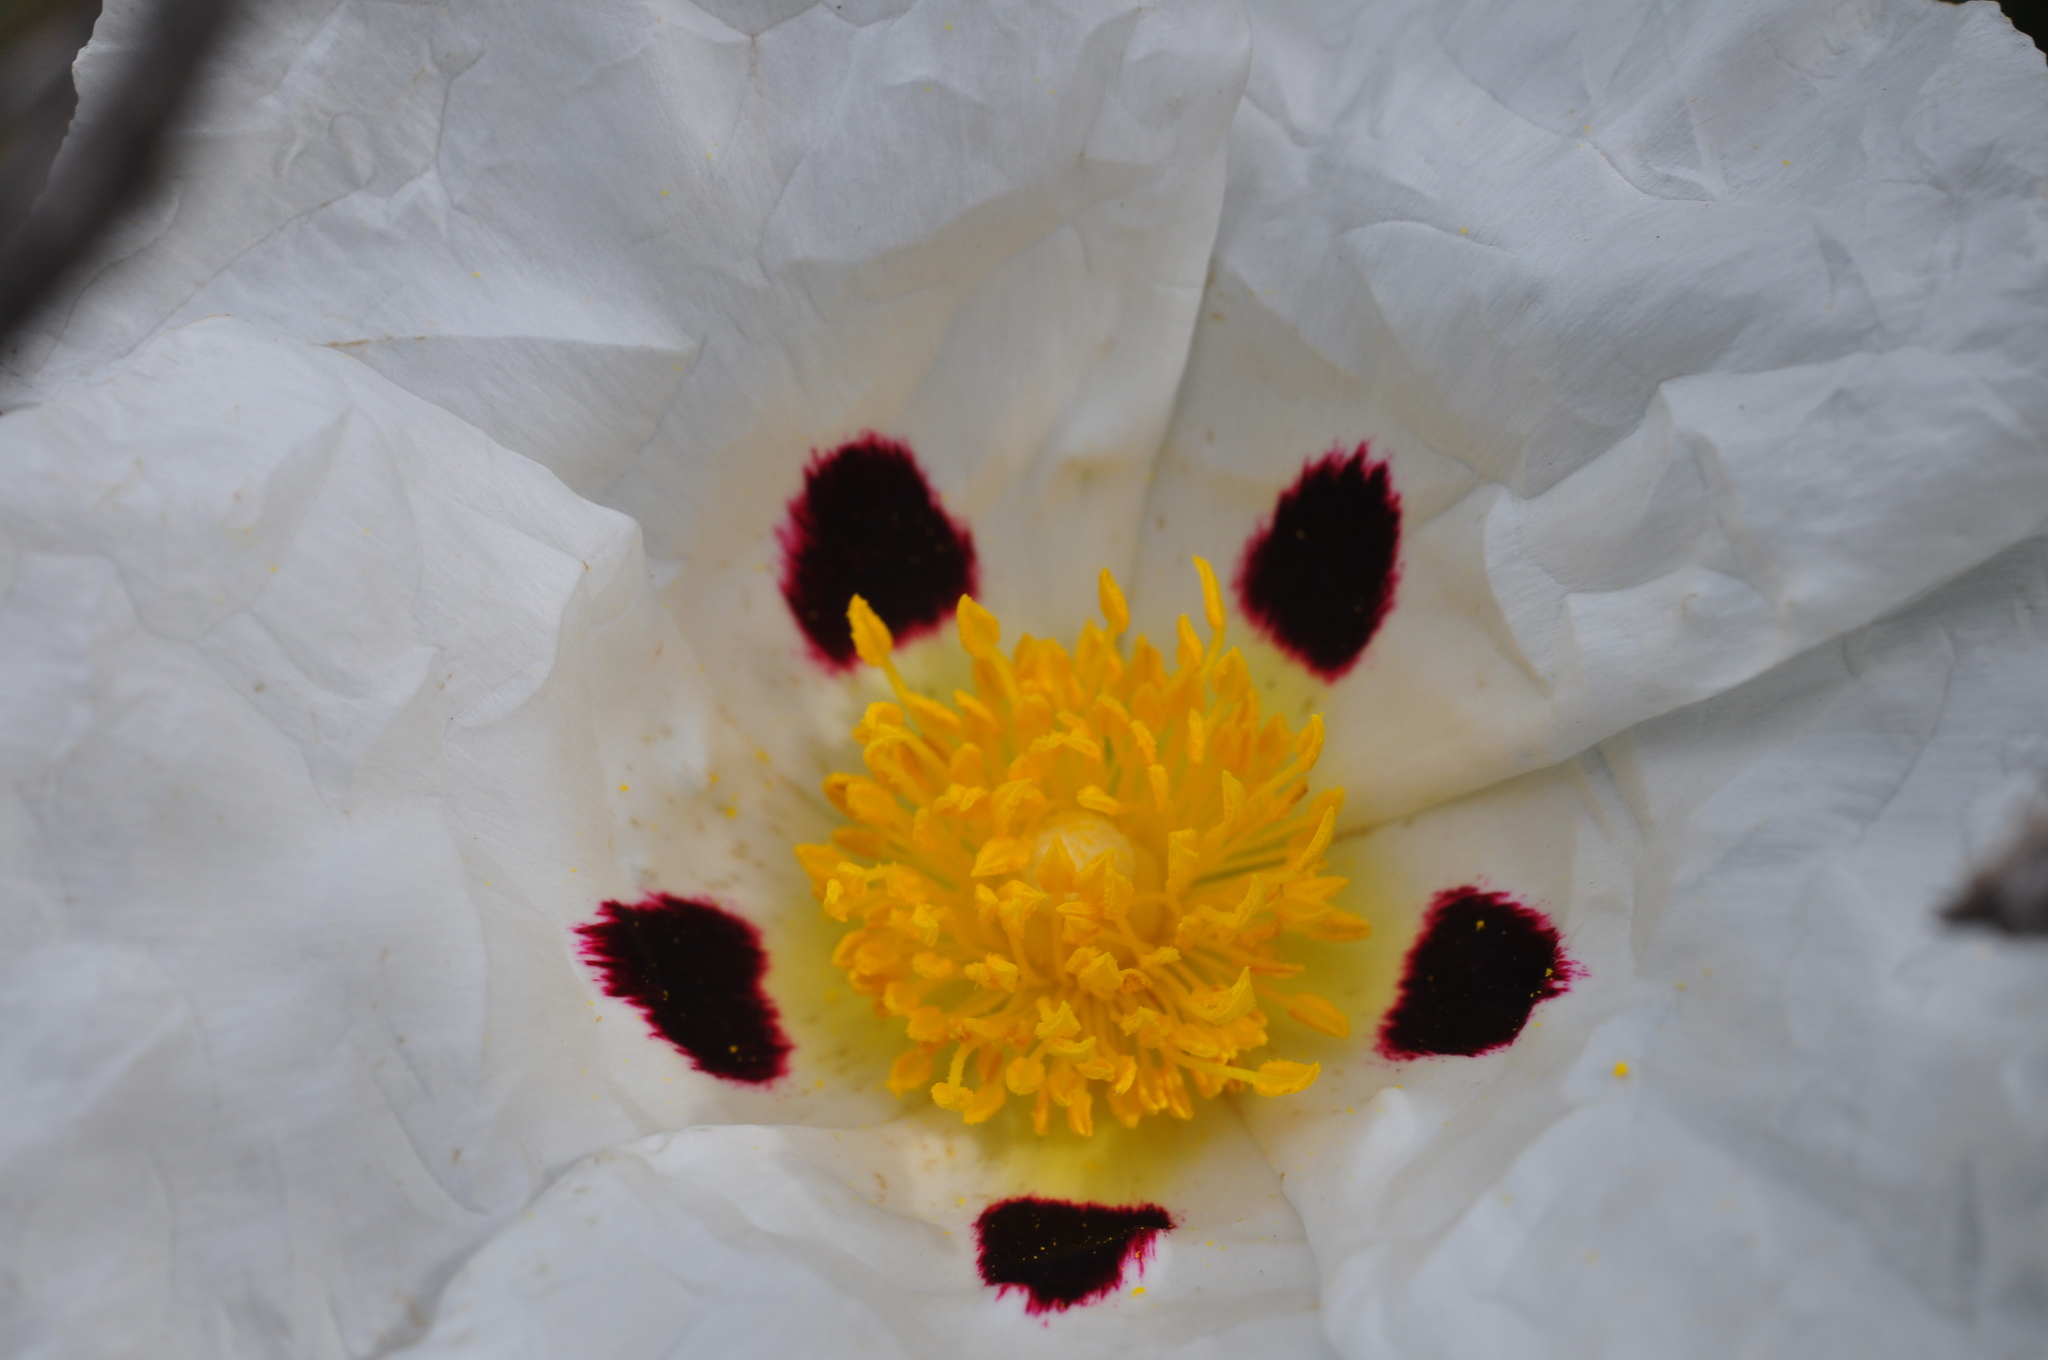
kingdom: Plantae
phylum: Tracheophyta
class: Magnoliopsida
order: Malvales
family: Cistaceae
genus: Cistus
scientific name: Cistus ladanifer
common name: Common gum cistus
